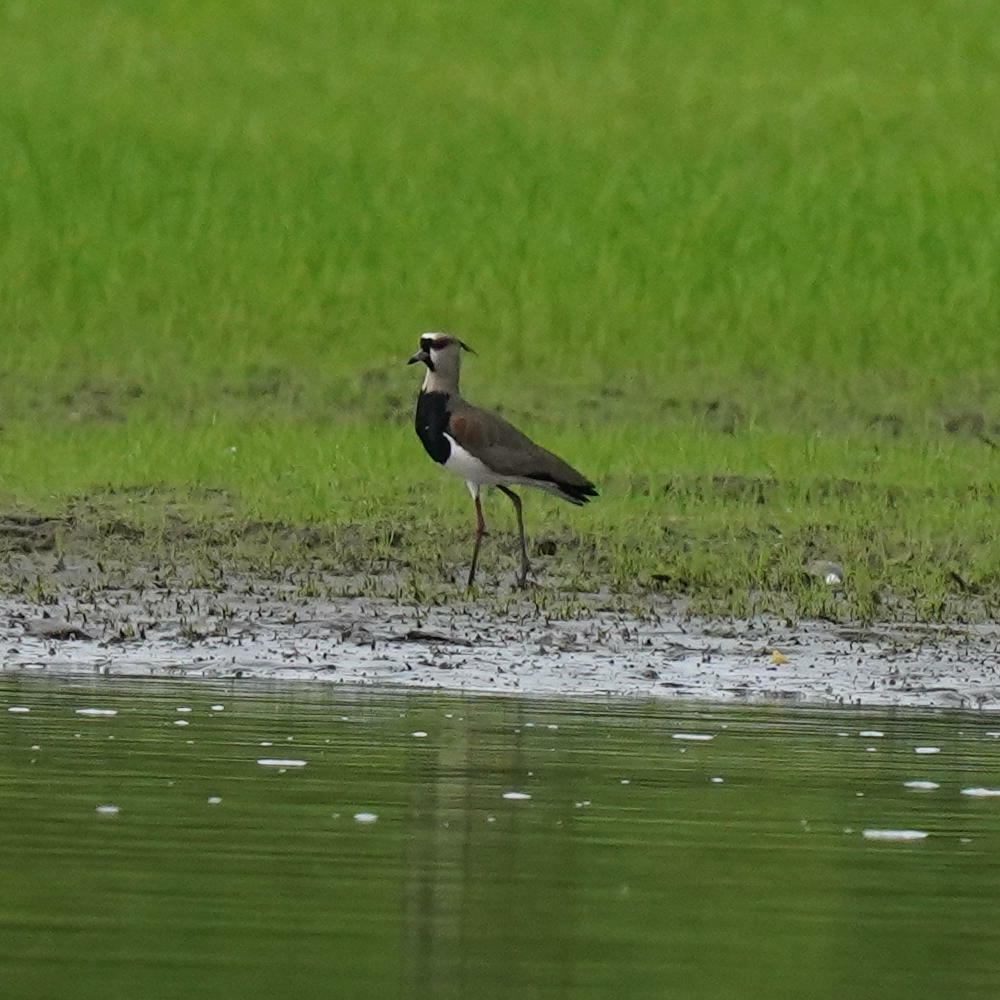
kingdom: Animalia
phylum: Chordata
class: Aves
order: Charadriiformes
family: Charadriidae
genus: Vanellus
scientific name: Vanellus chilensis
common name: Southern lapwing
